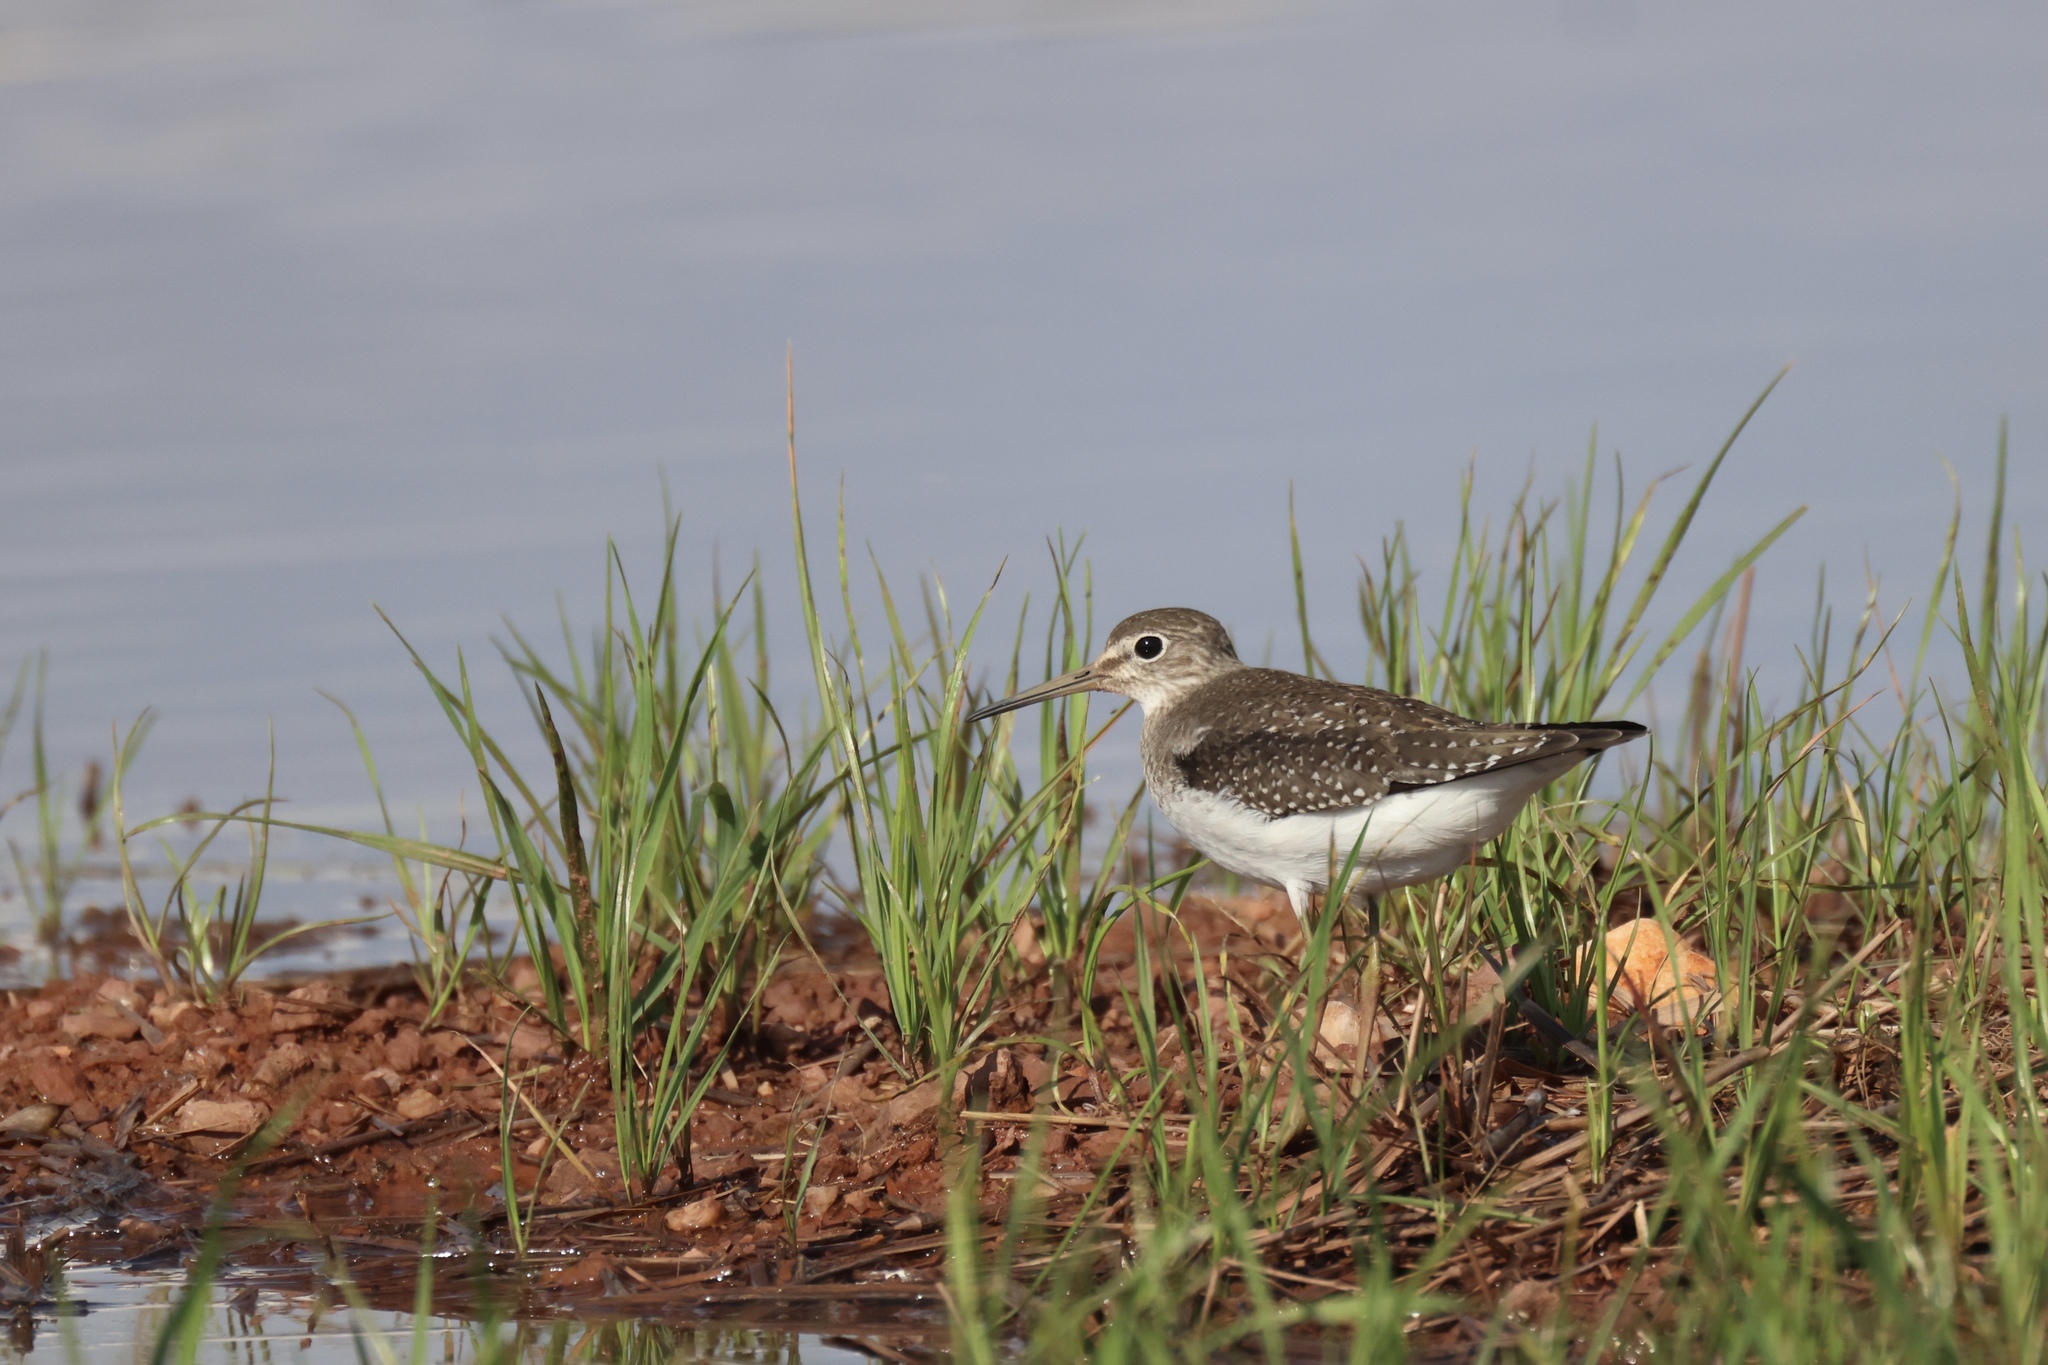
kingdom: Animalia
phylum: Chordata
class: Aves
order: Charadriiformes
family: Scolopacidae
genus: Tringa
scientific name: Tringa solitaria
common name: Solitary sandpiper
